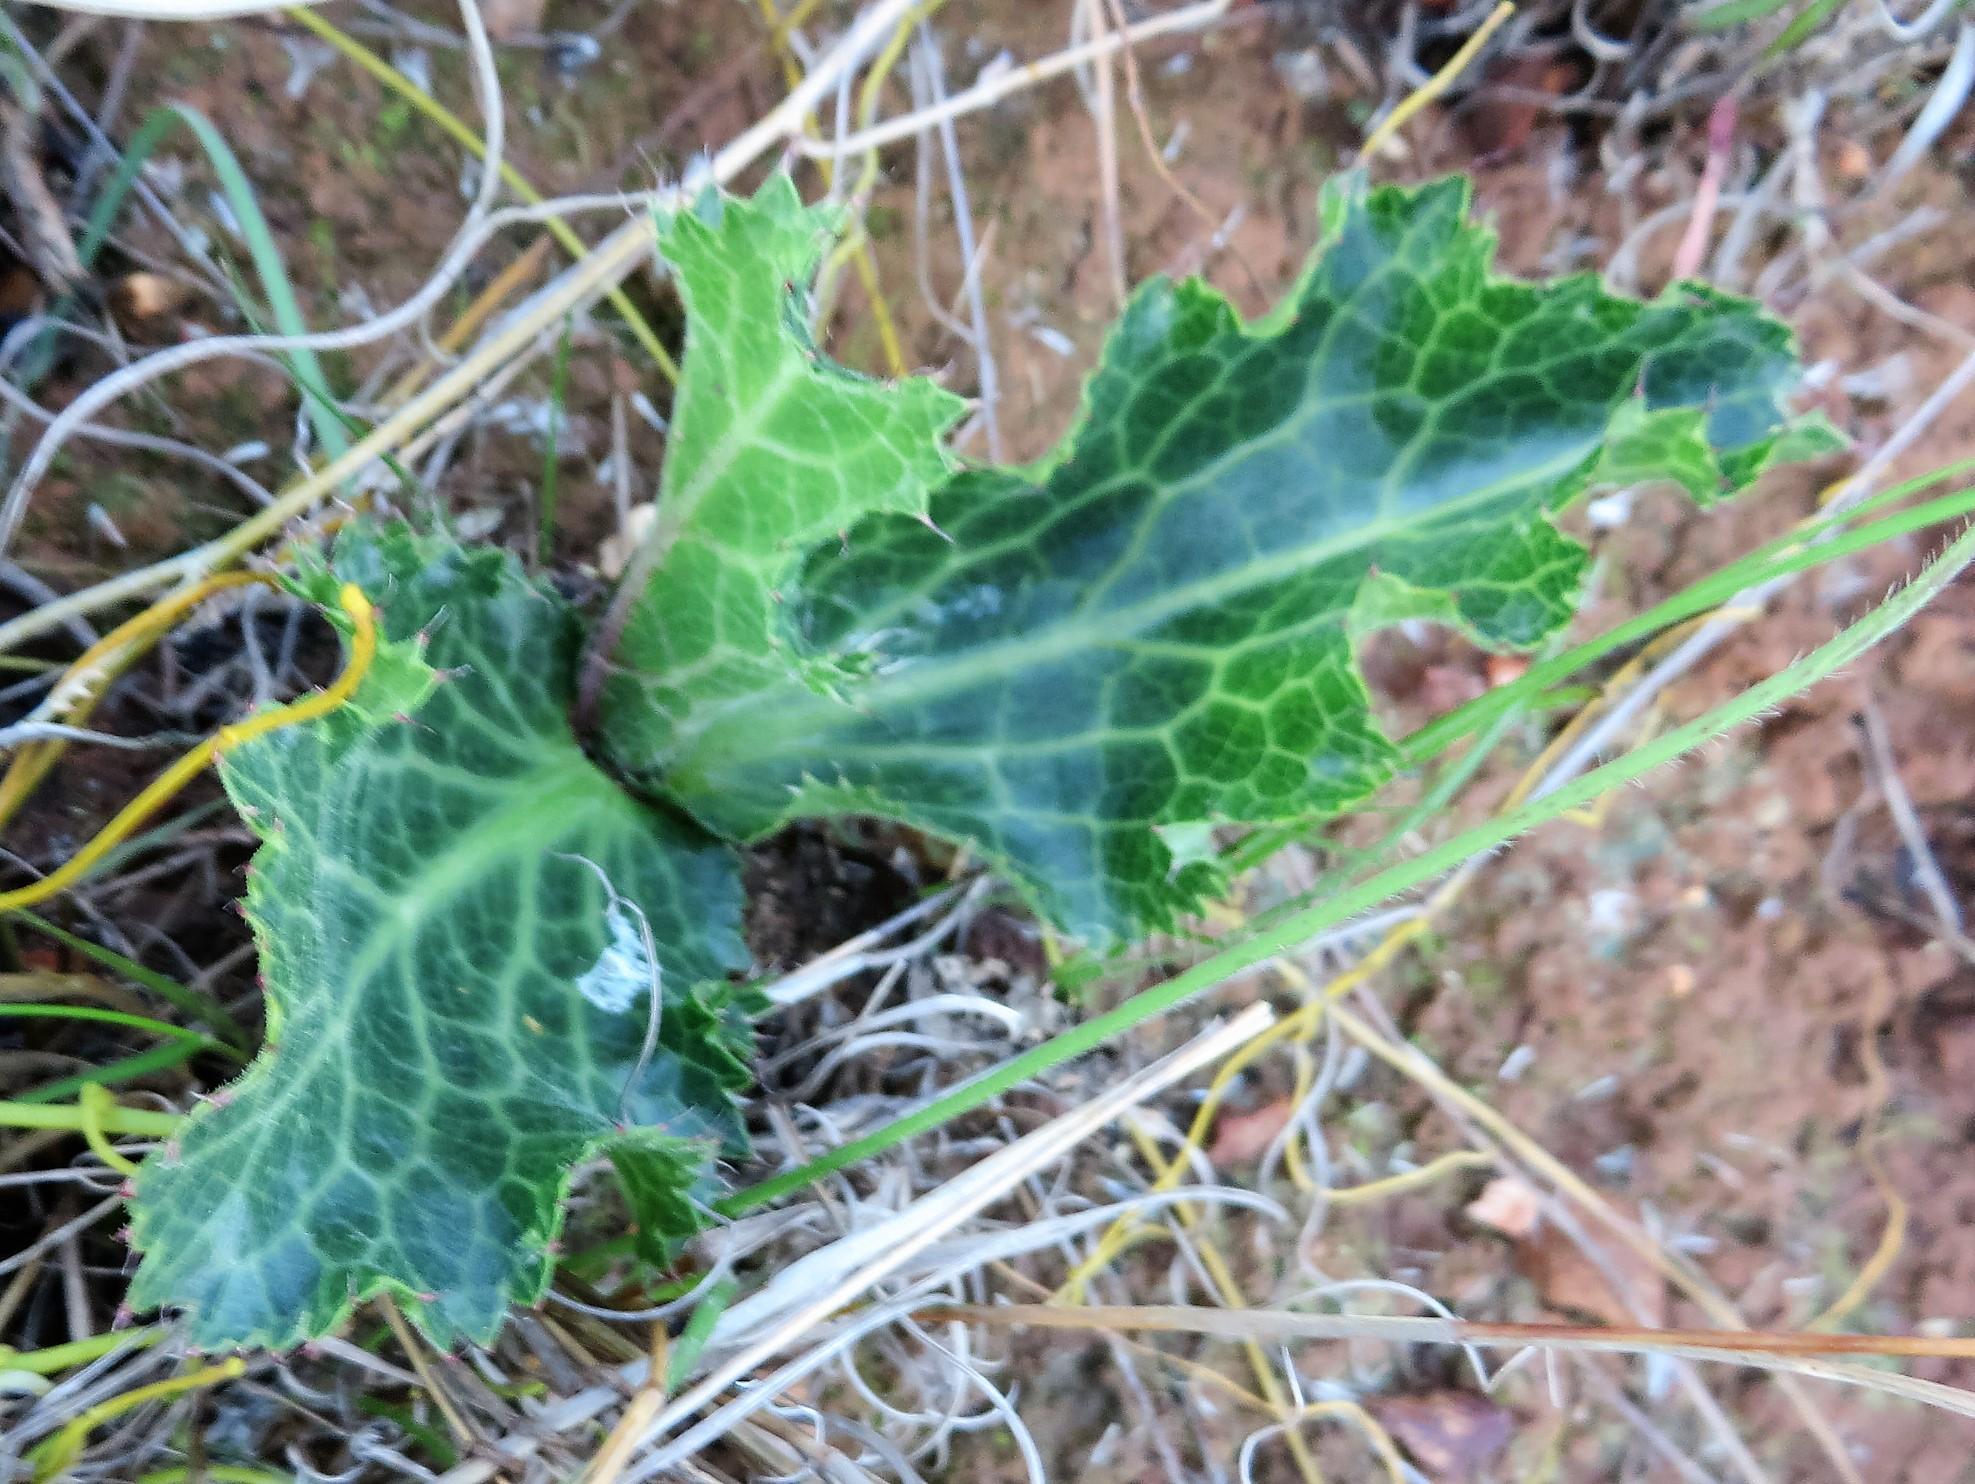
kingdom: Plantae
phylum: Tracheophyta
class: Magnoliopsida
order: Apiales
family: Apiaceae
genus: Lichtensteinia
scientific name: Lichtensteinia lacera
